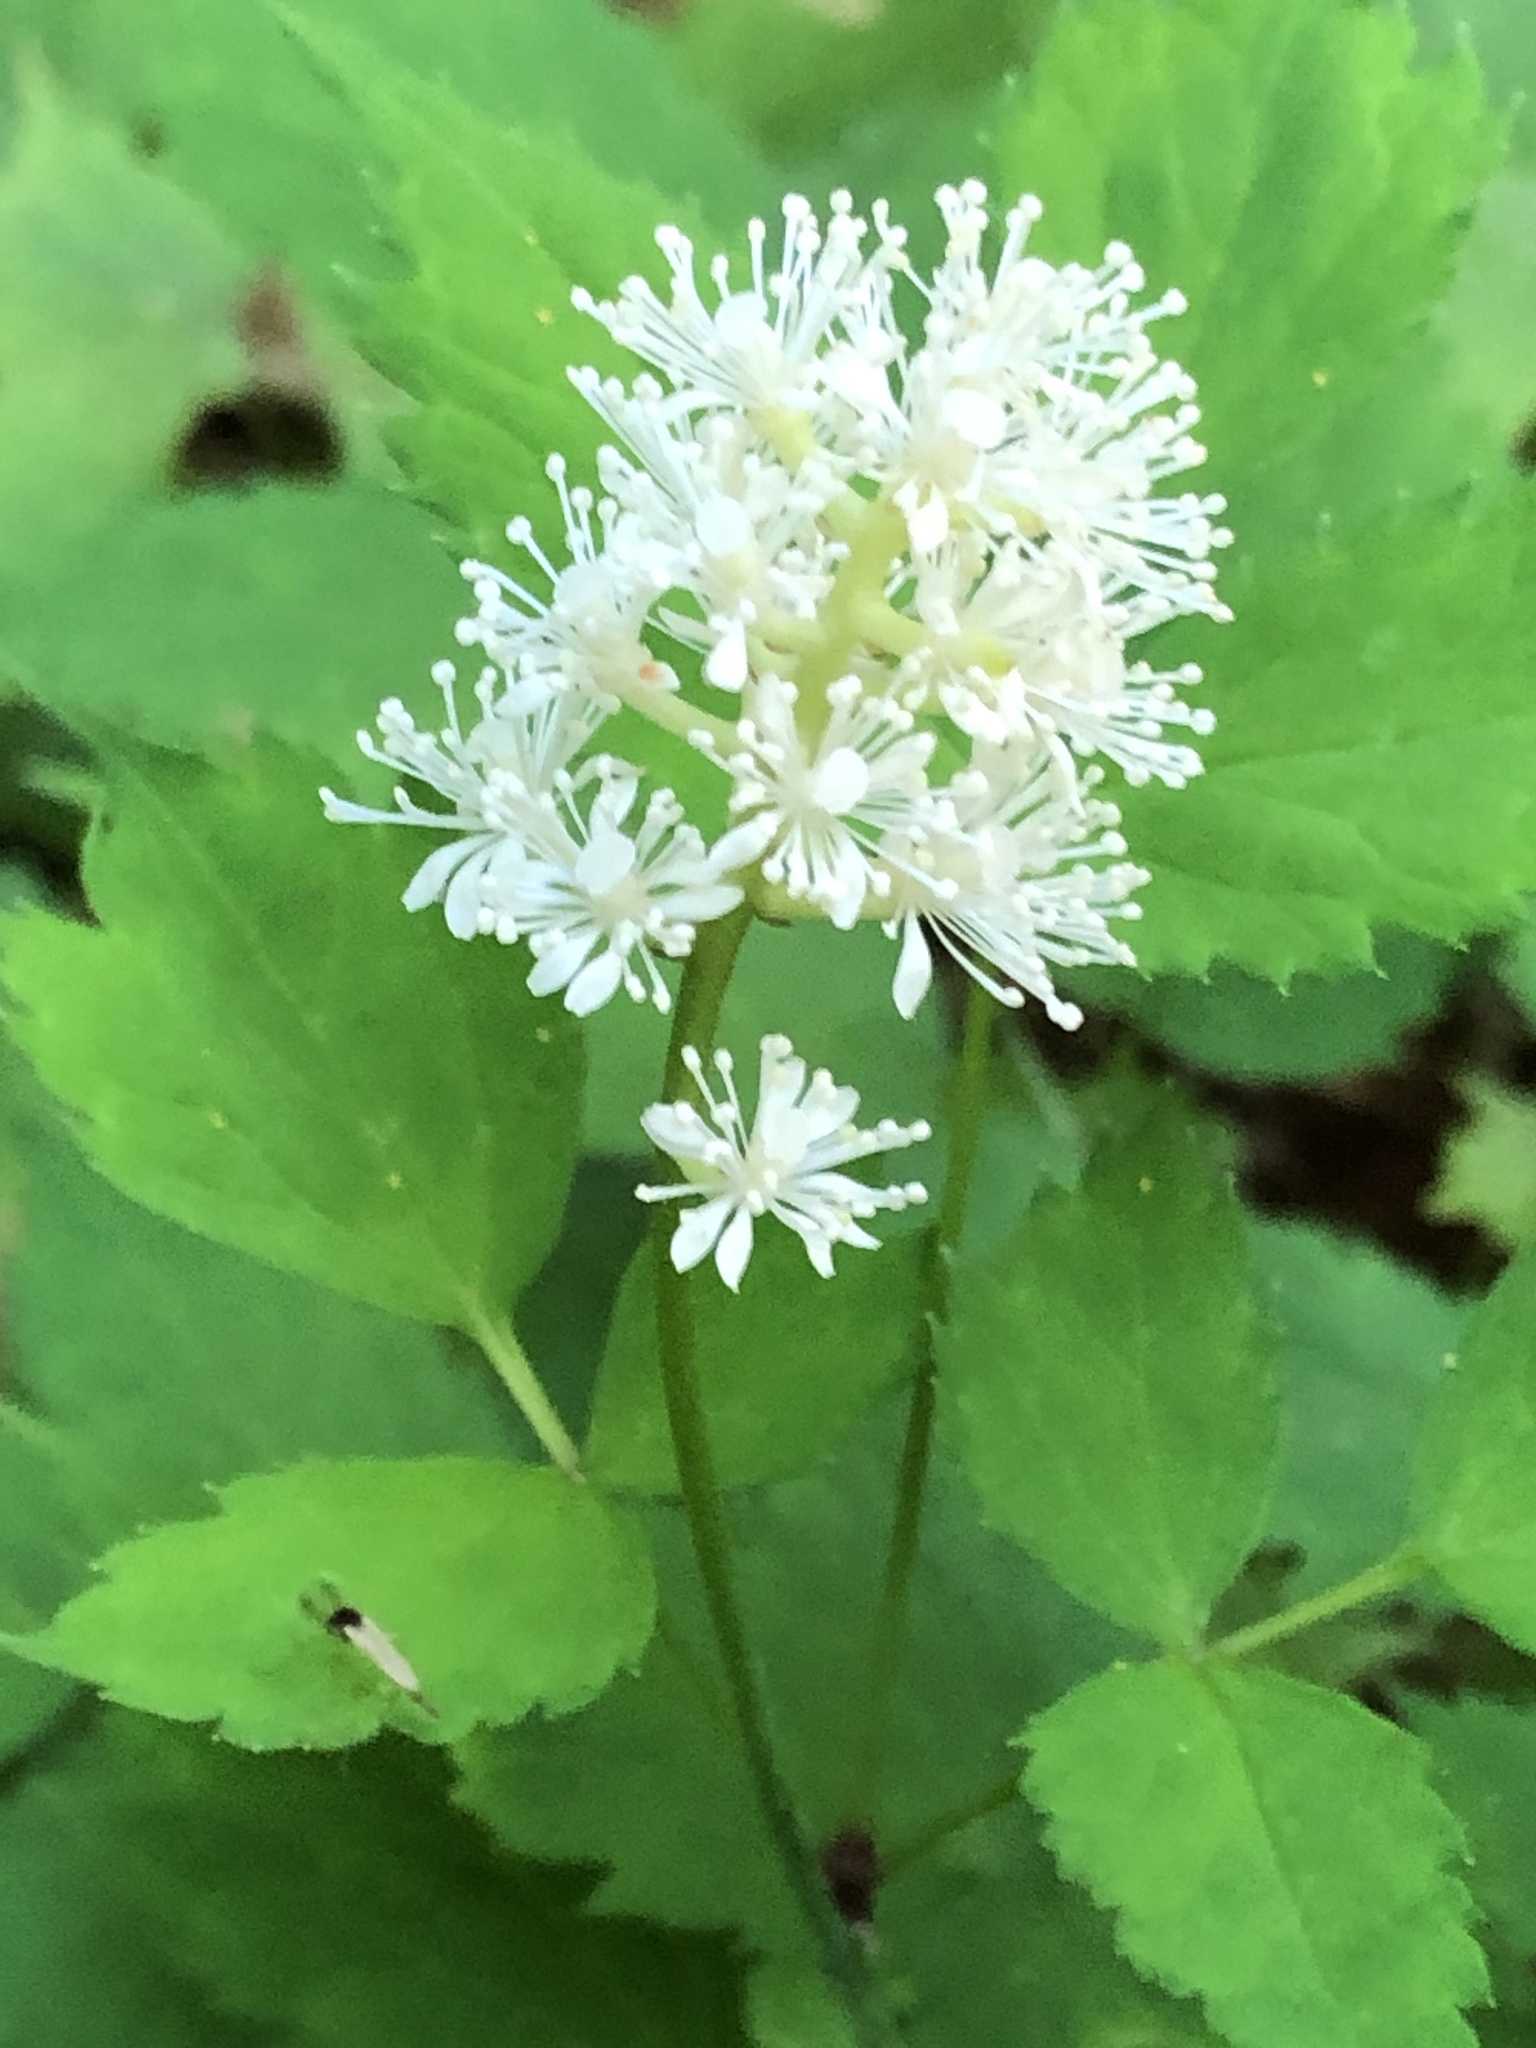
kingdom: Plantae
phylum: Tracheophyta
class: Magnoliopsida
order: Ranunculales
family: Ranunculaceae
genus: Actaea
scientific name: Actaea pachypoda
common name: Doll's-eyes
